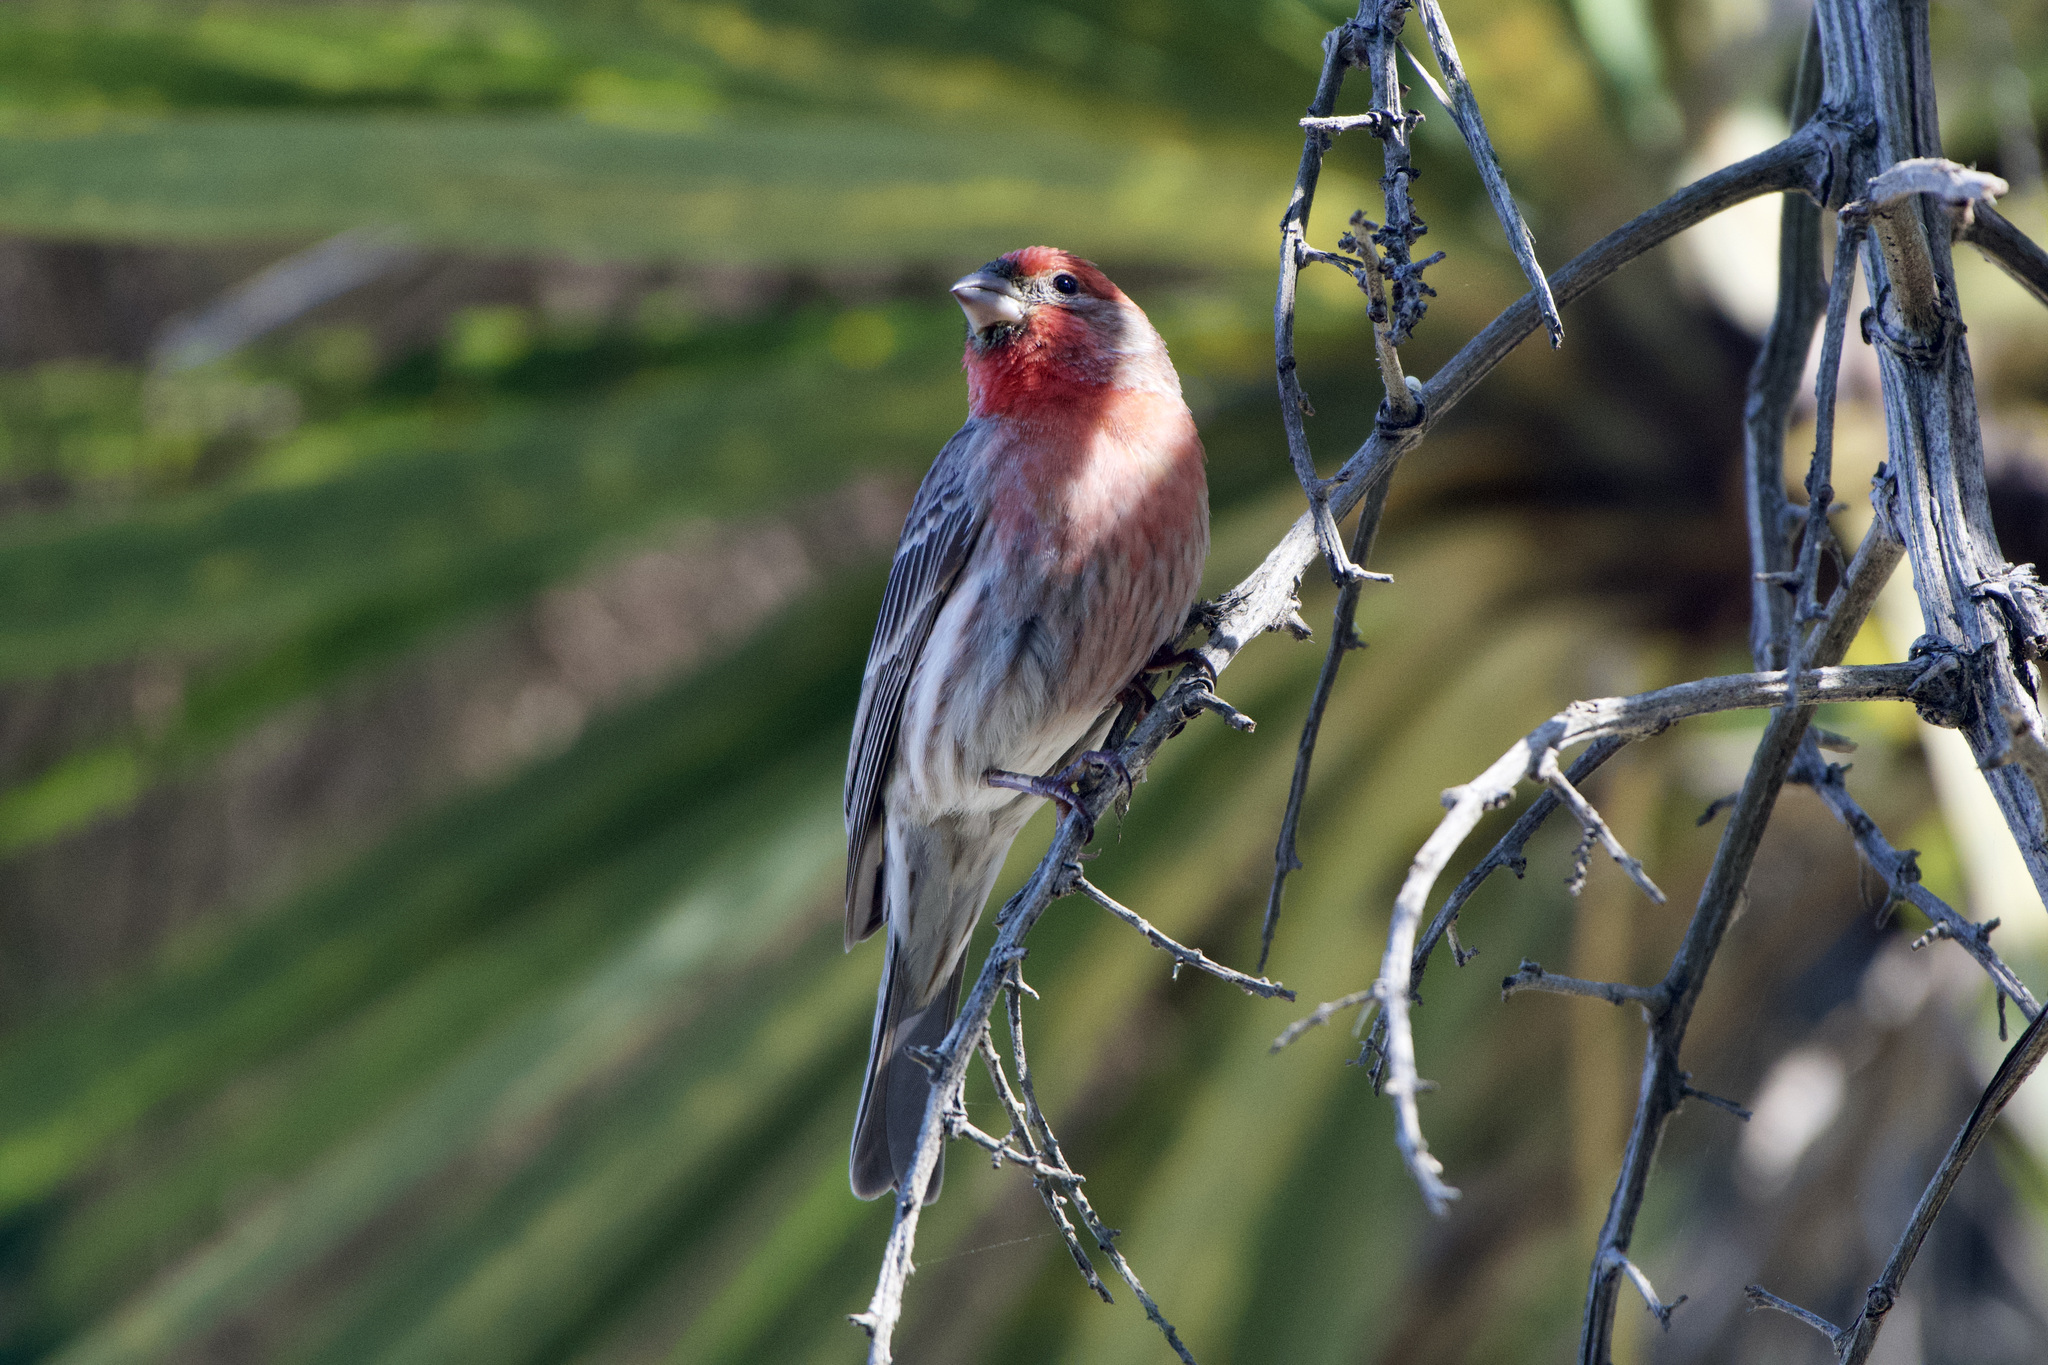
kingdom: Animalia
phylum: Chordata
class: Aves
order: Passeriformes
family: Fringillidae
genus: Haemorhous
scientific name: Haemorhous mexicanus
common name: House finch
